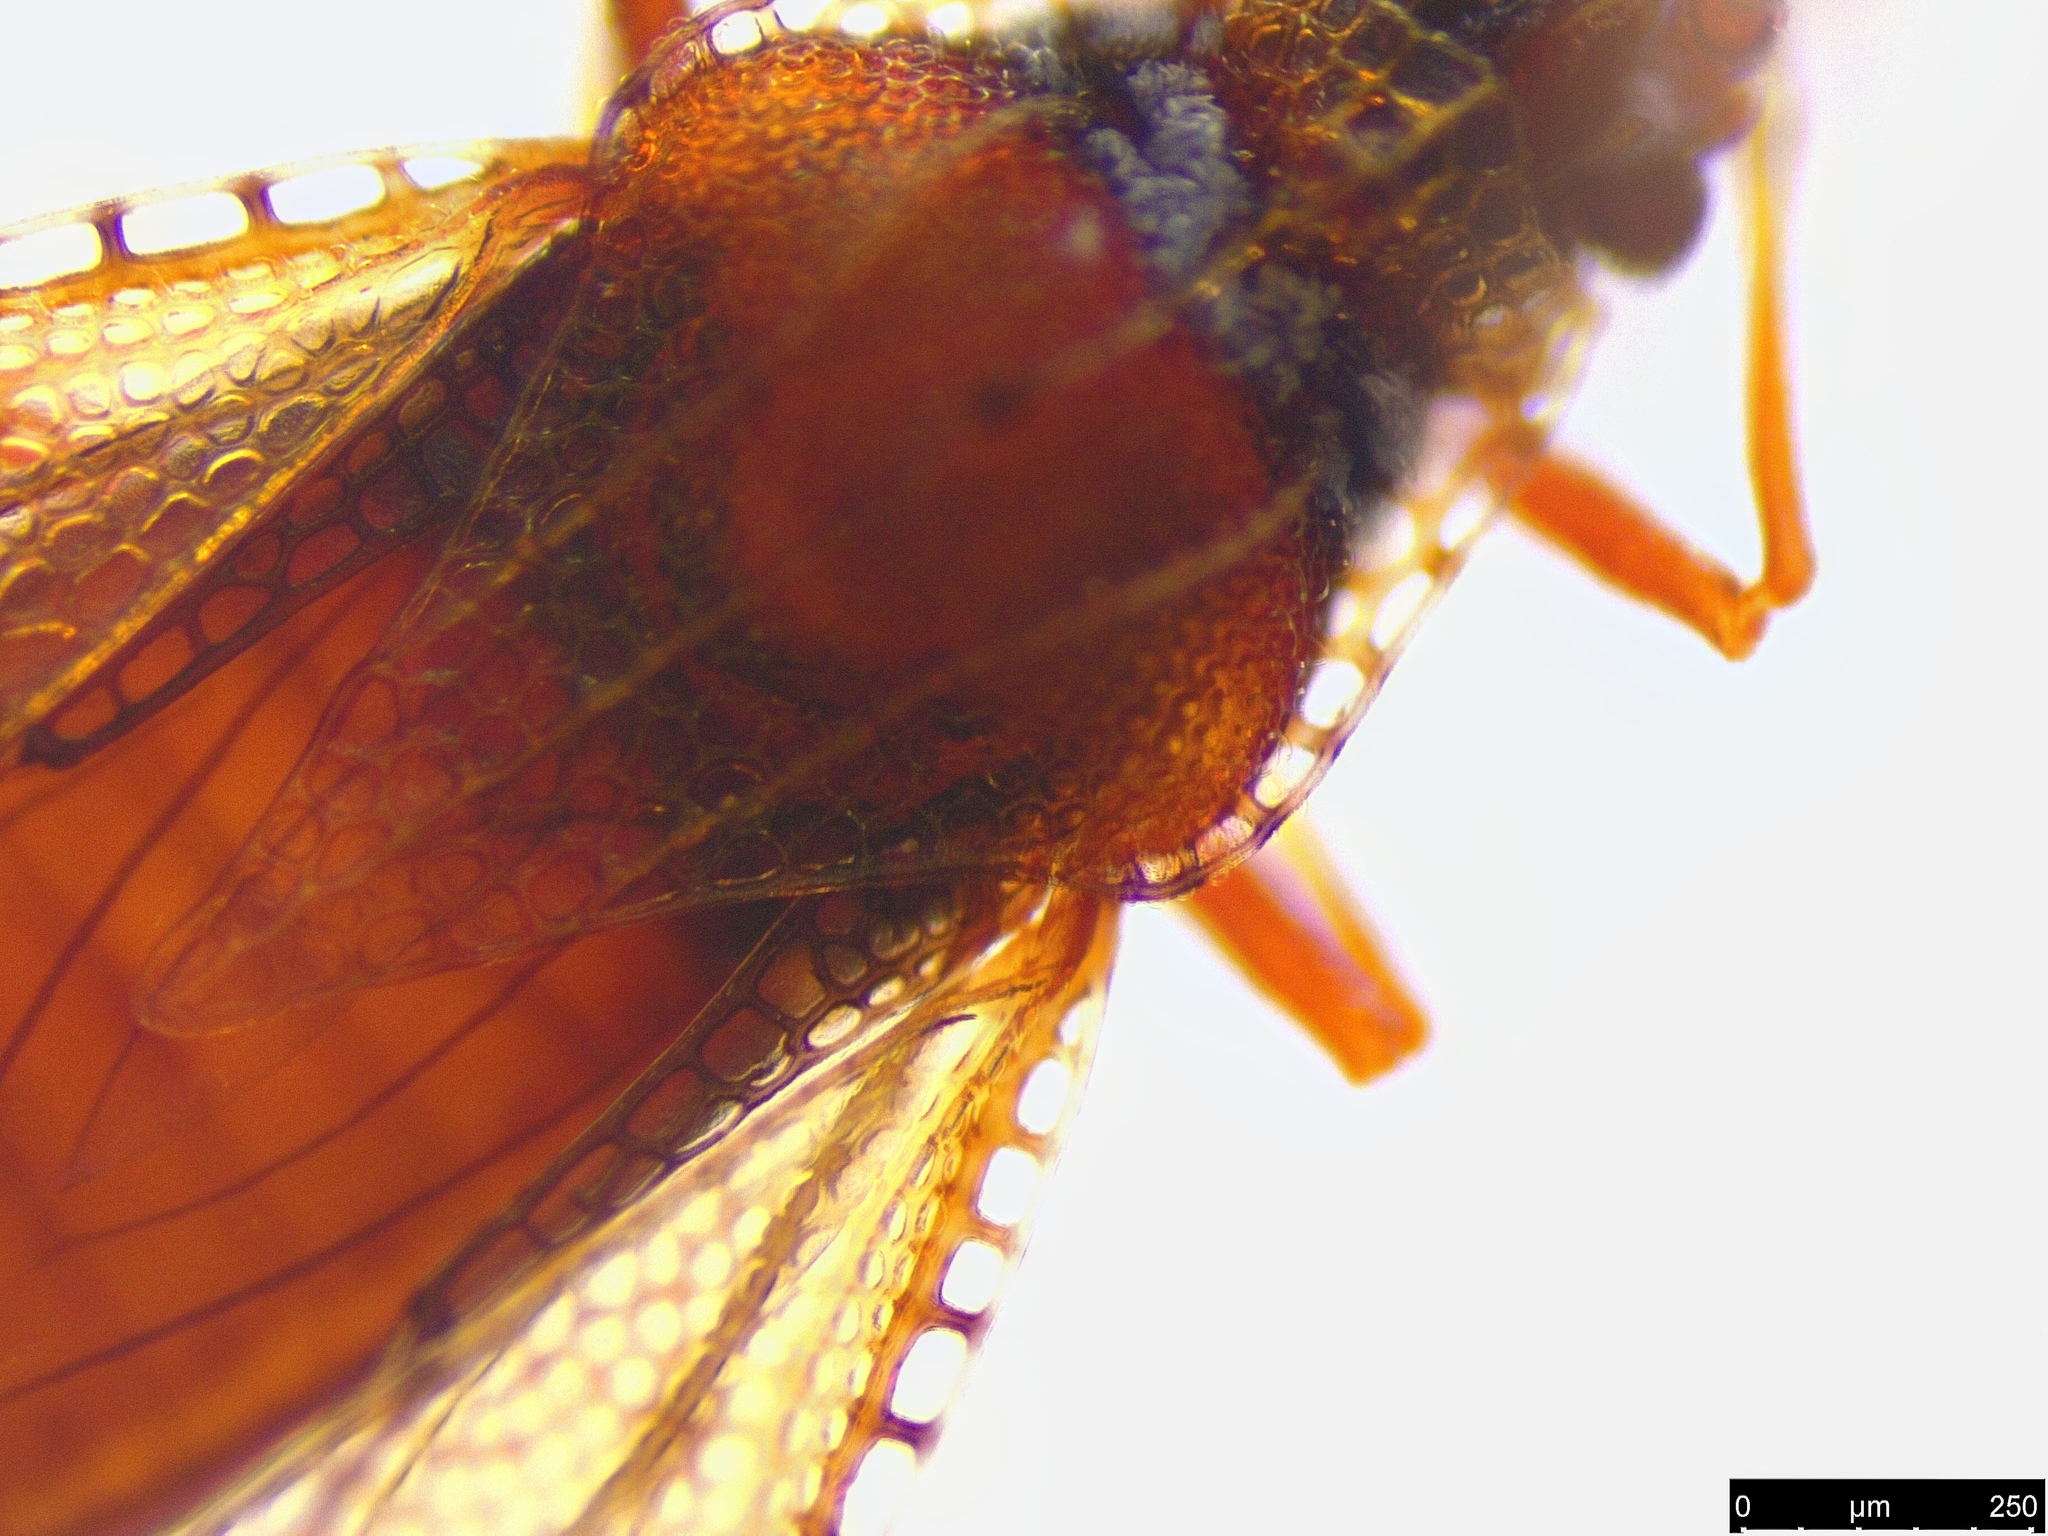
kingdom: Animalia
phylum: Arthropoda
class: Insecta
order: Hemiptera
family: Tingidae
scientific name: Tingidae
